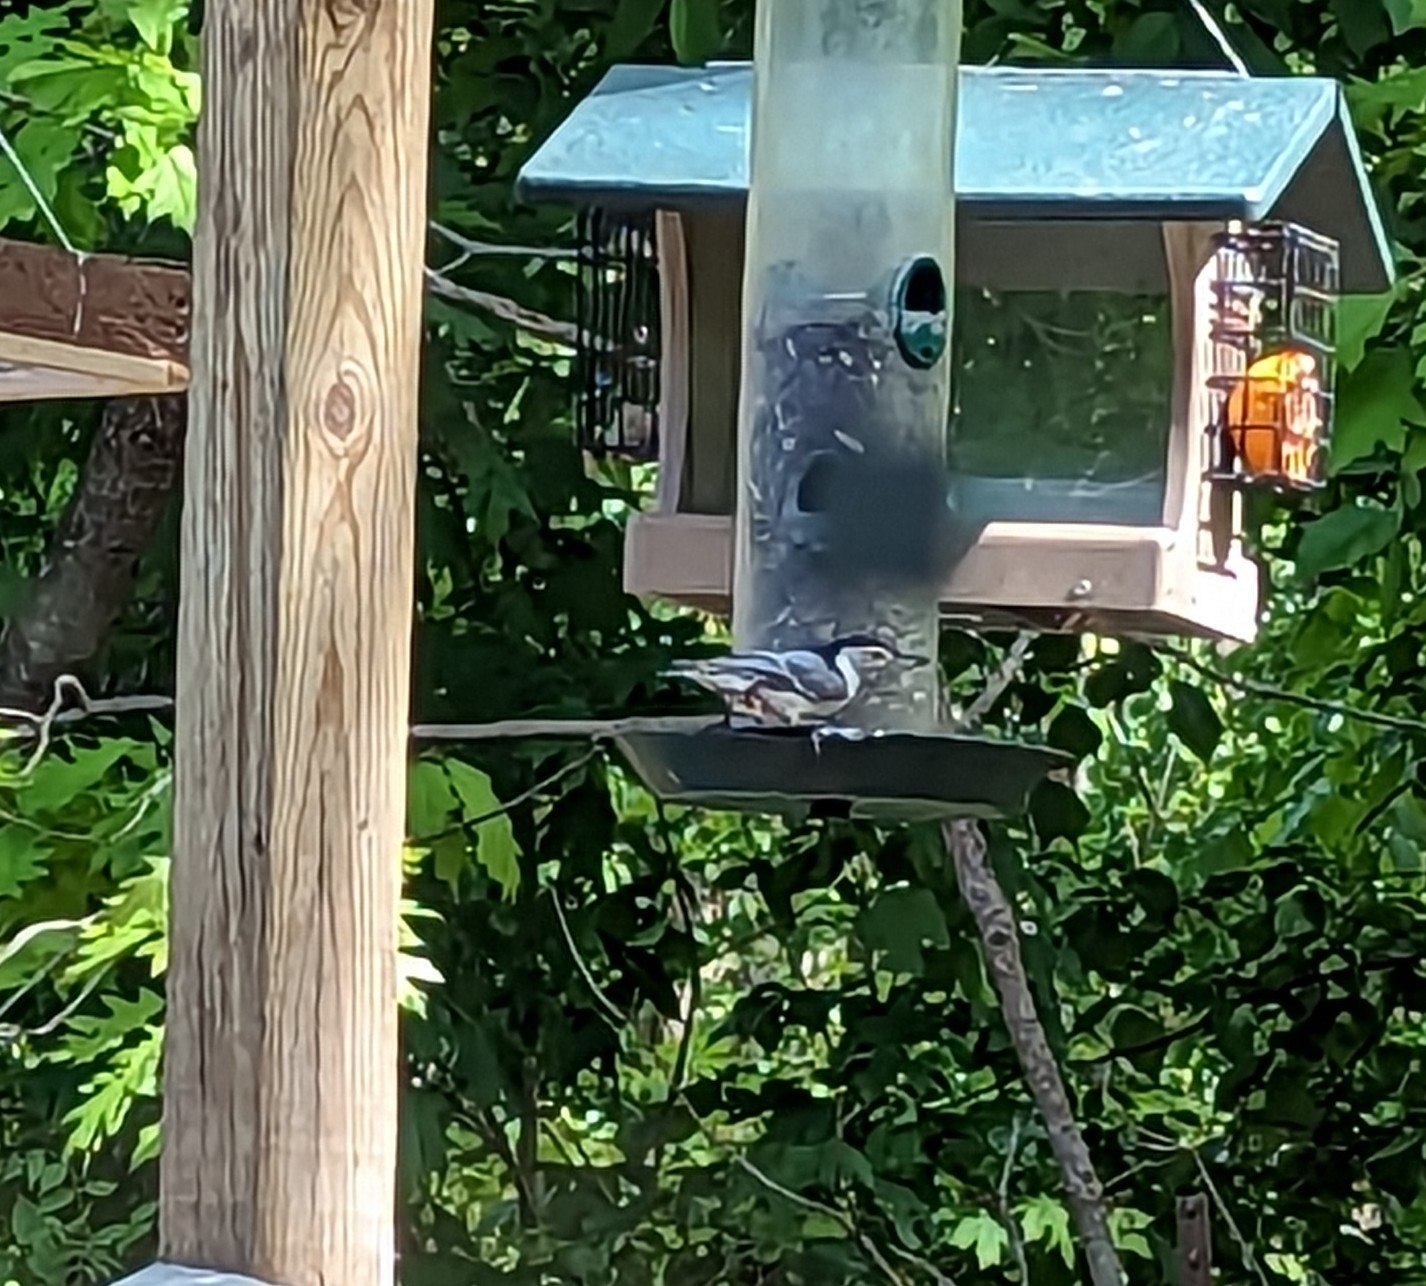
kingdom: Animalia
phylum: Chordata
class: Aves
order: Passeriformes
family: Sittidae
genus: Sitta
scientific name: Sitta carolinensis
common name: White-breasted nuthatch
